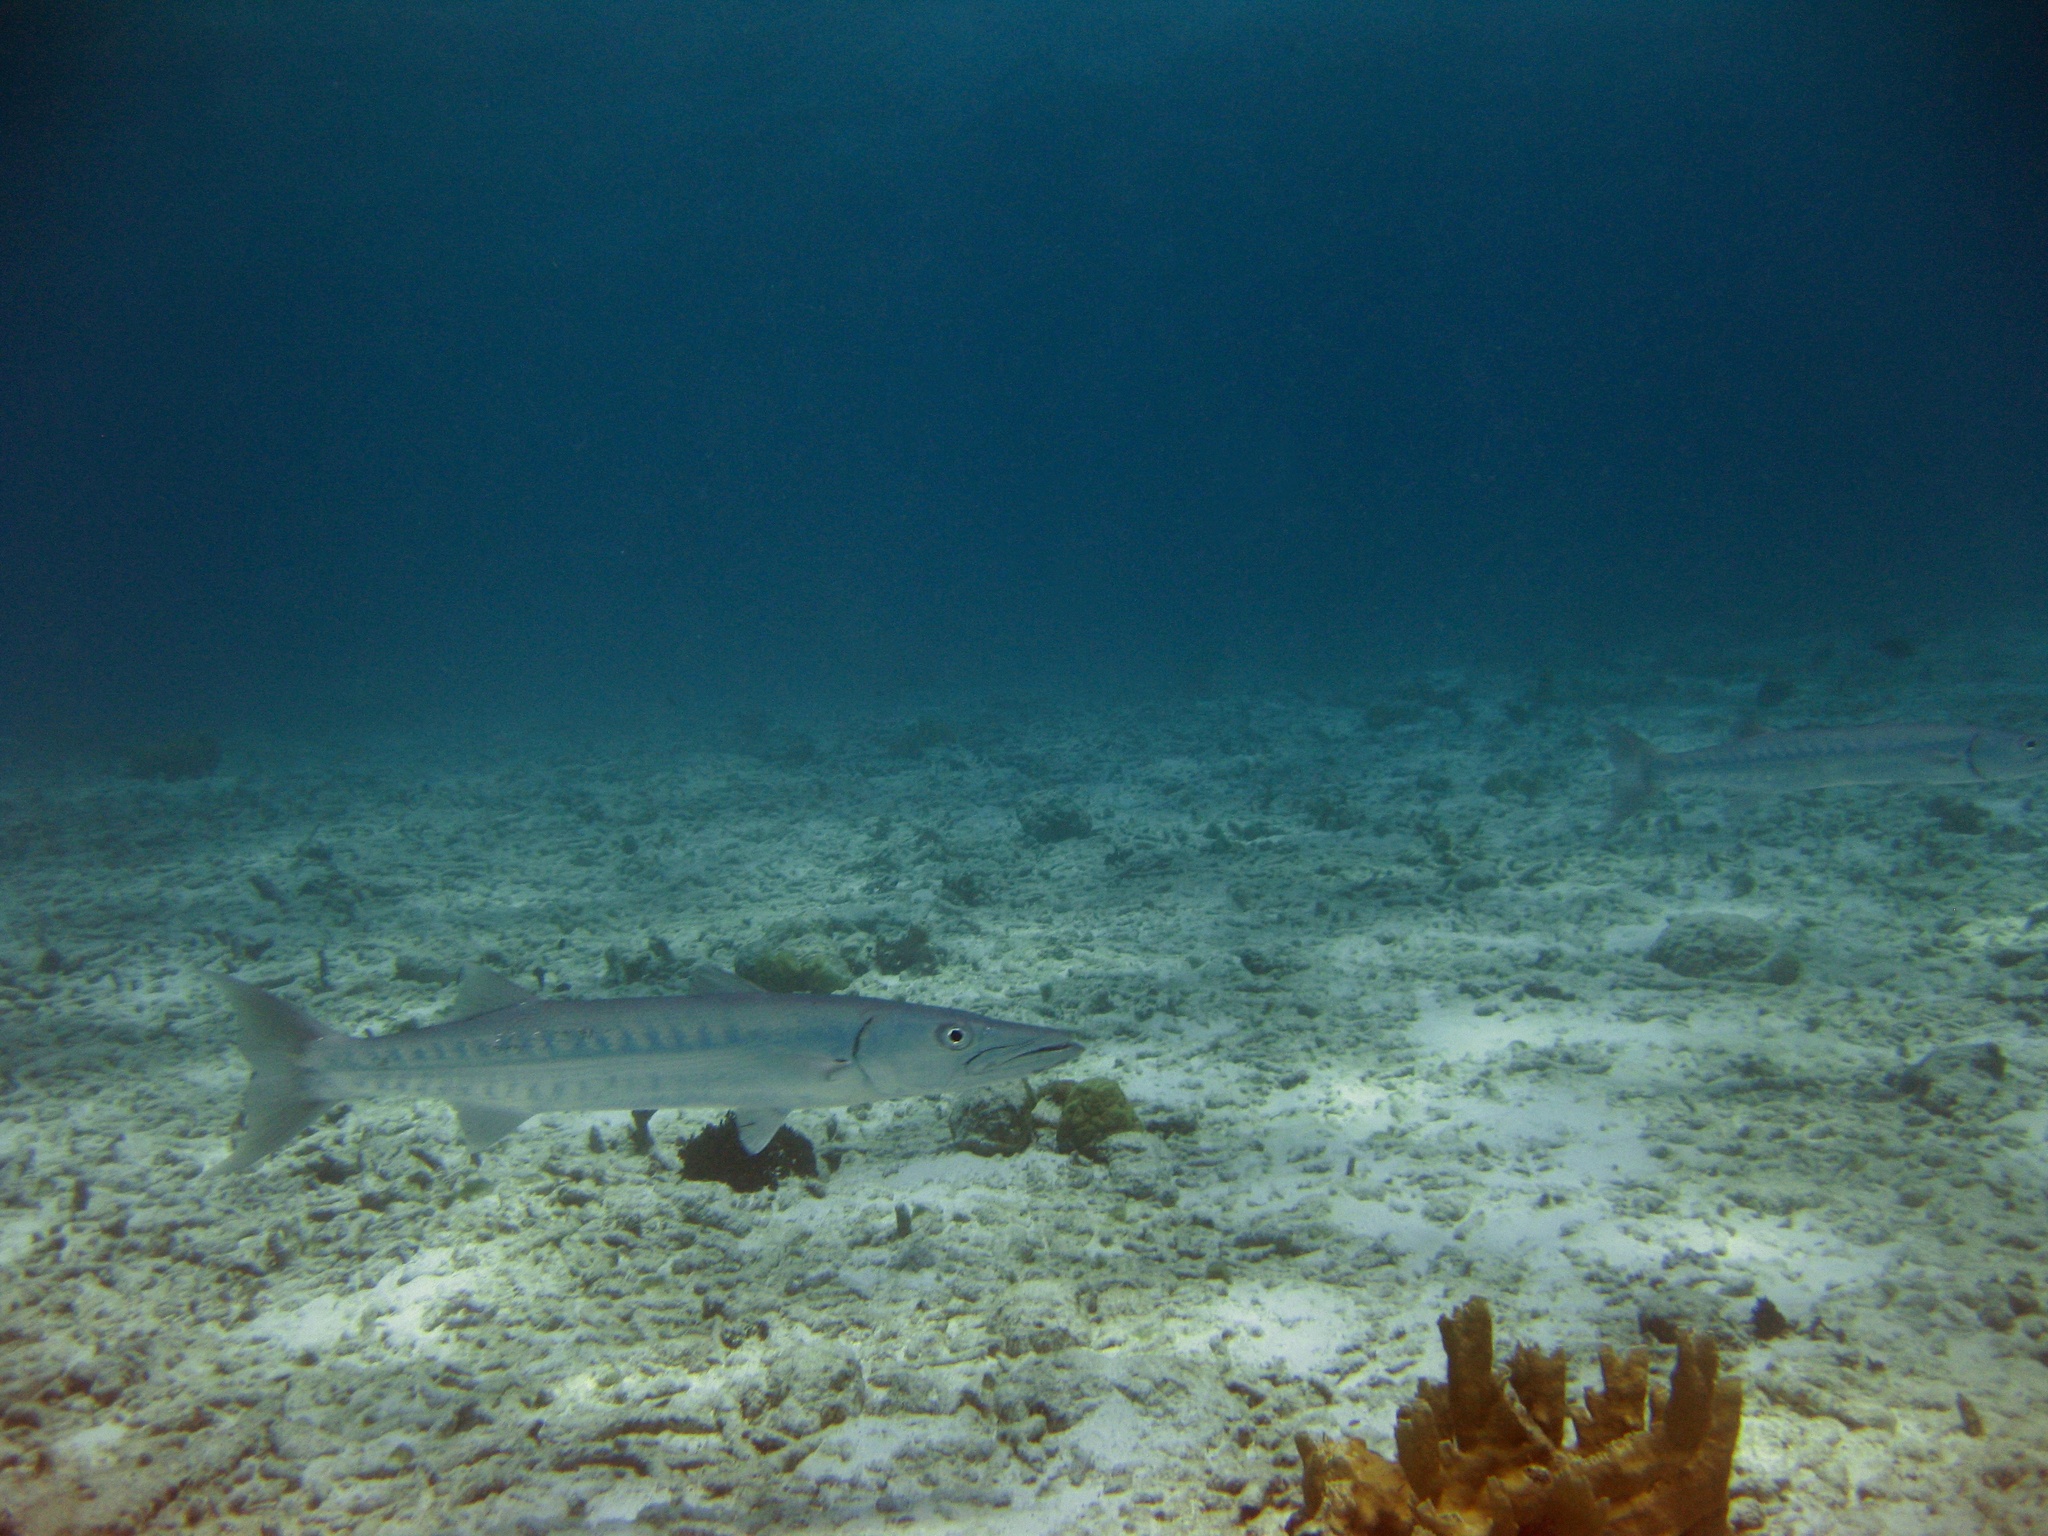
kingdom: Animalia
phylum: Chordata
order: Perciformes
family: Sphyraenidae
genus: Sphyraena
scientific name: Sphyraena barracuda
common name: Great barracuda
